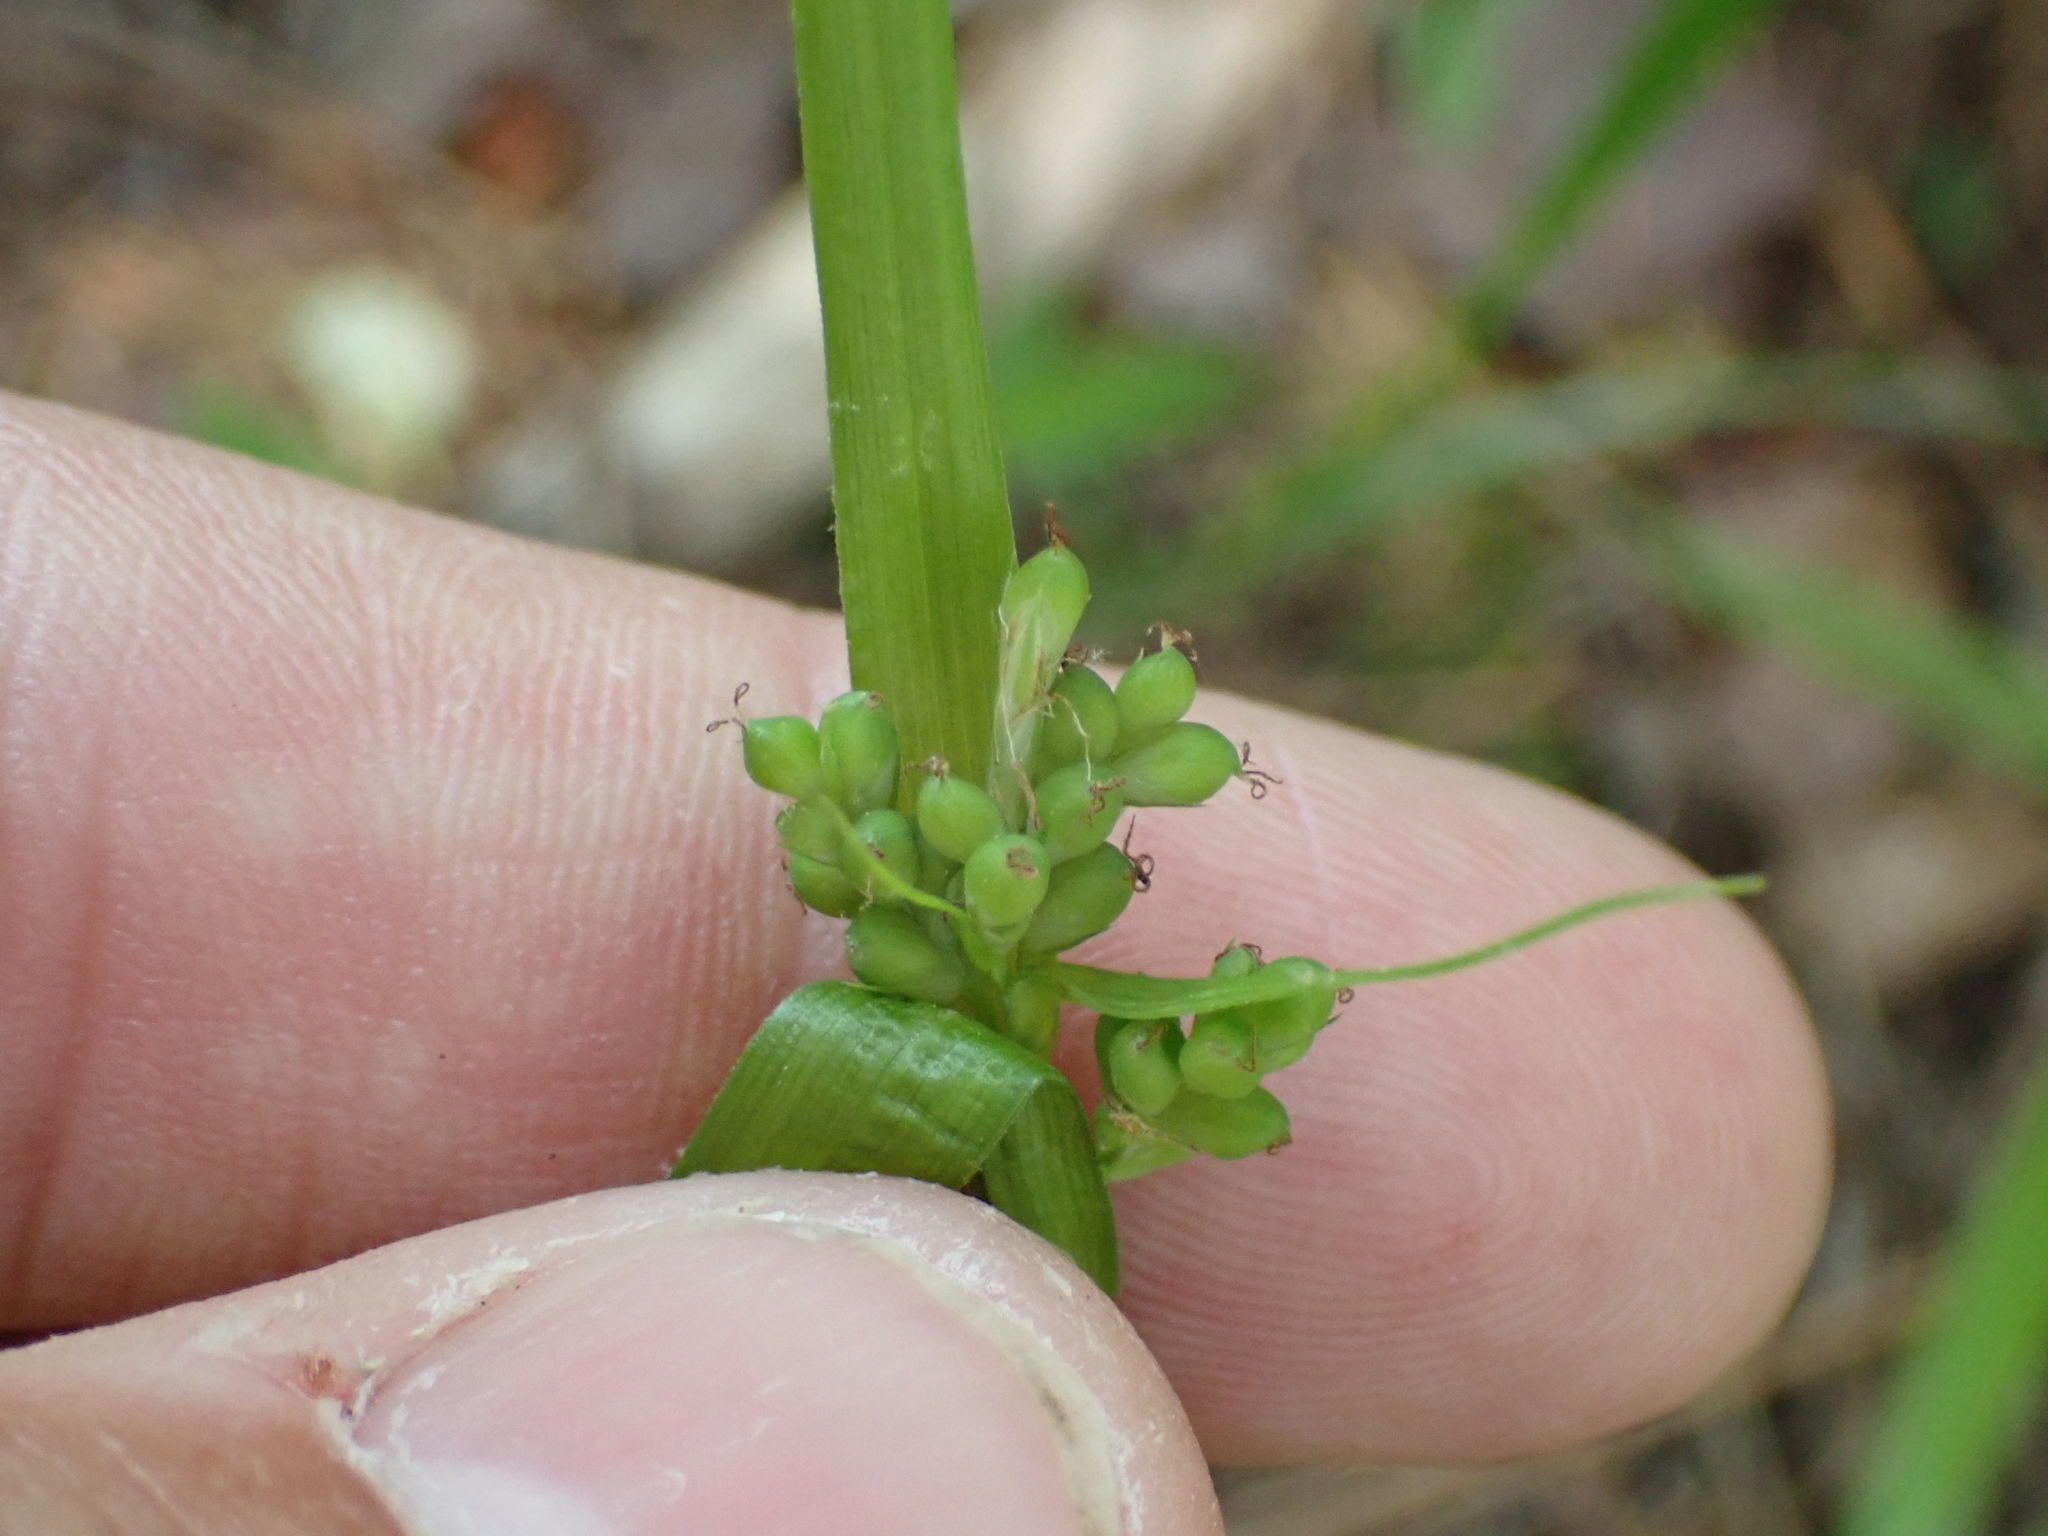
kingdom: Plantae
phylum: Tracheophyta
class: Liliopsida
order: Poales
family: Cyperaceae
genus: Carex
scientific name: Carex blanda
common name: Bland sedge
